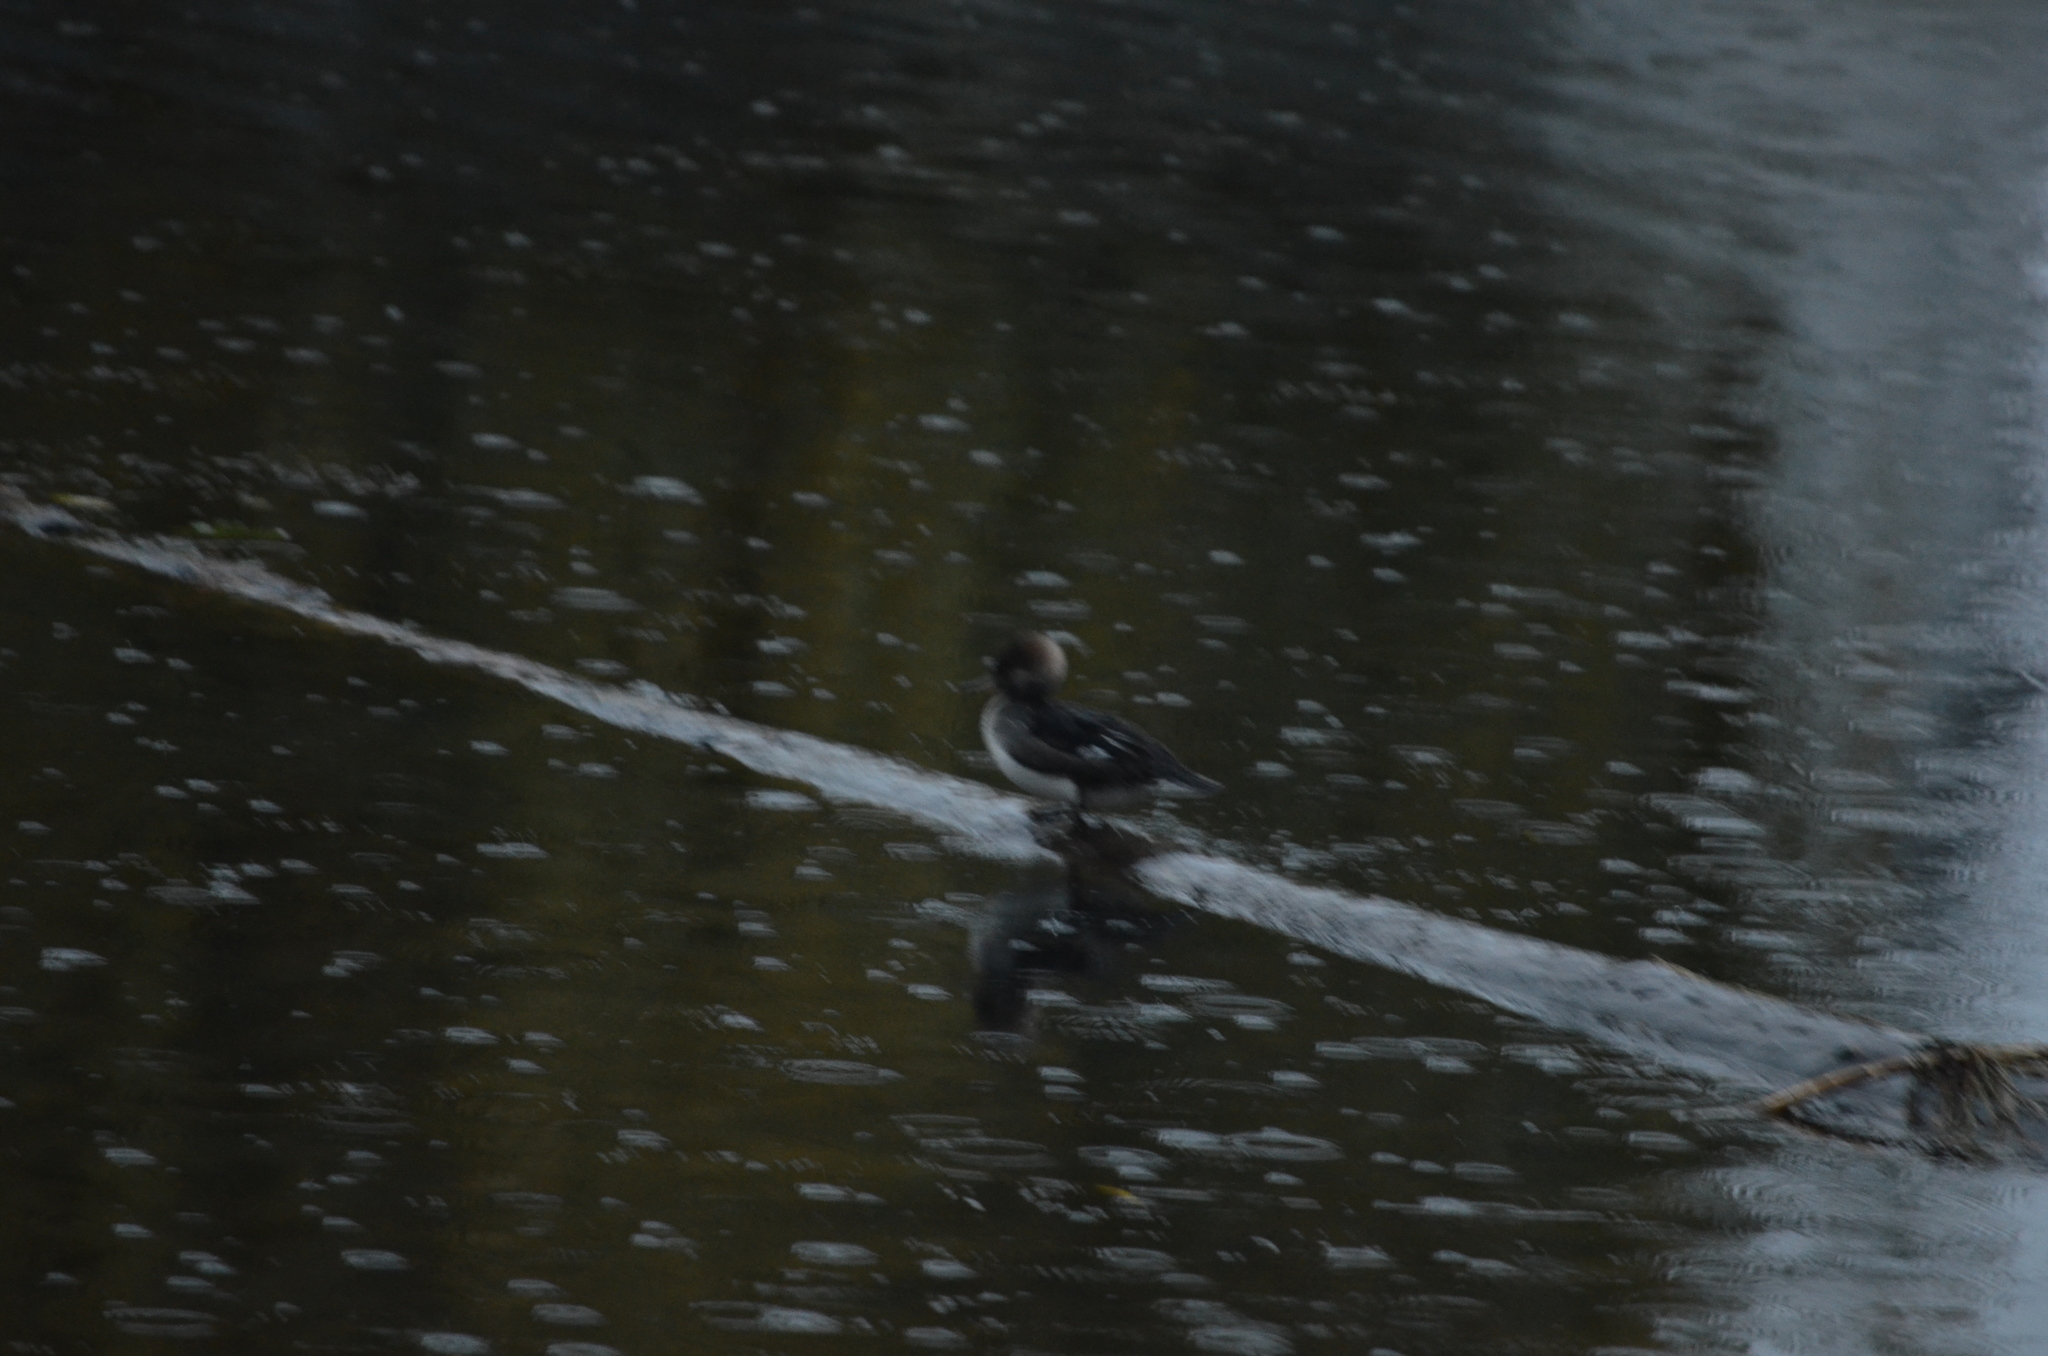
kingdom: Animalia
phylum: Chordata
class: Aves
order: Anseriformes
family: Anatidae
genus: Lophodytes
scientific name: Lophodytes cucullatus
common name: Hooded merganser
